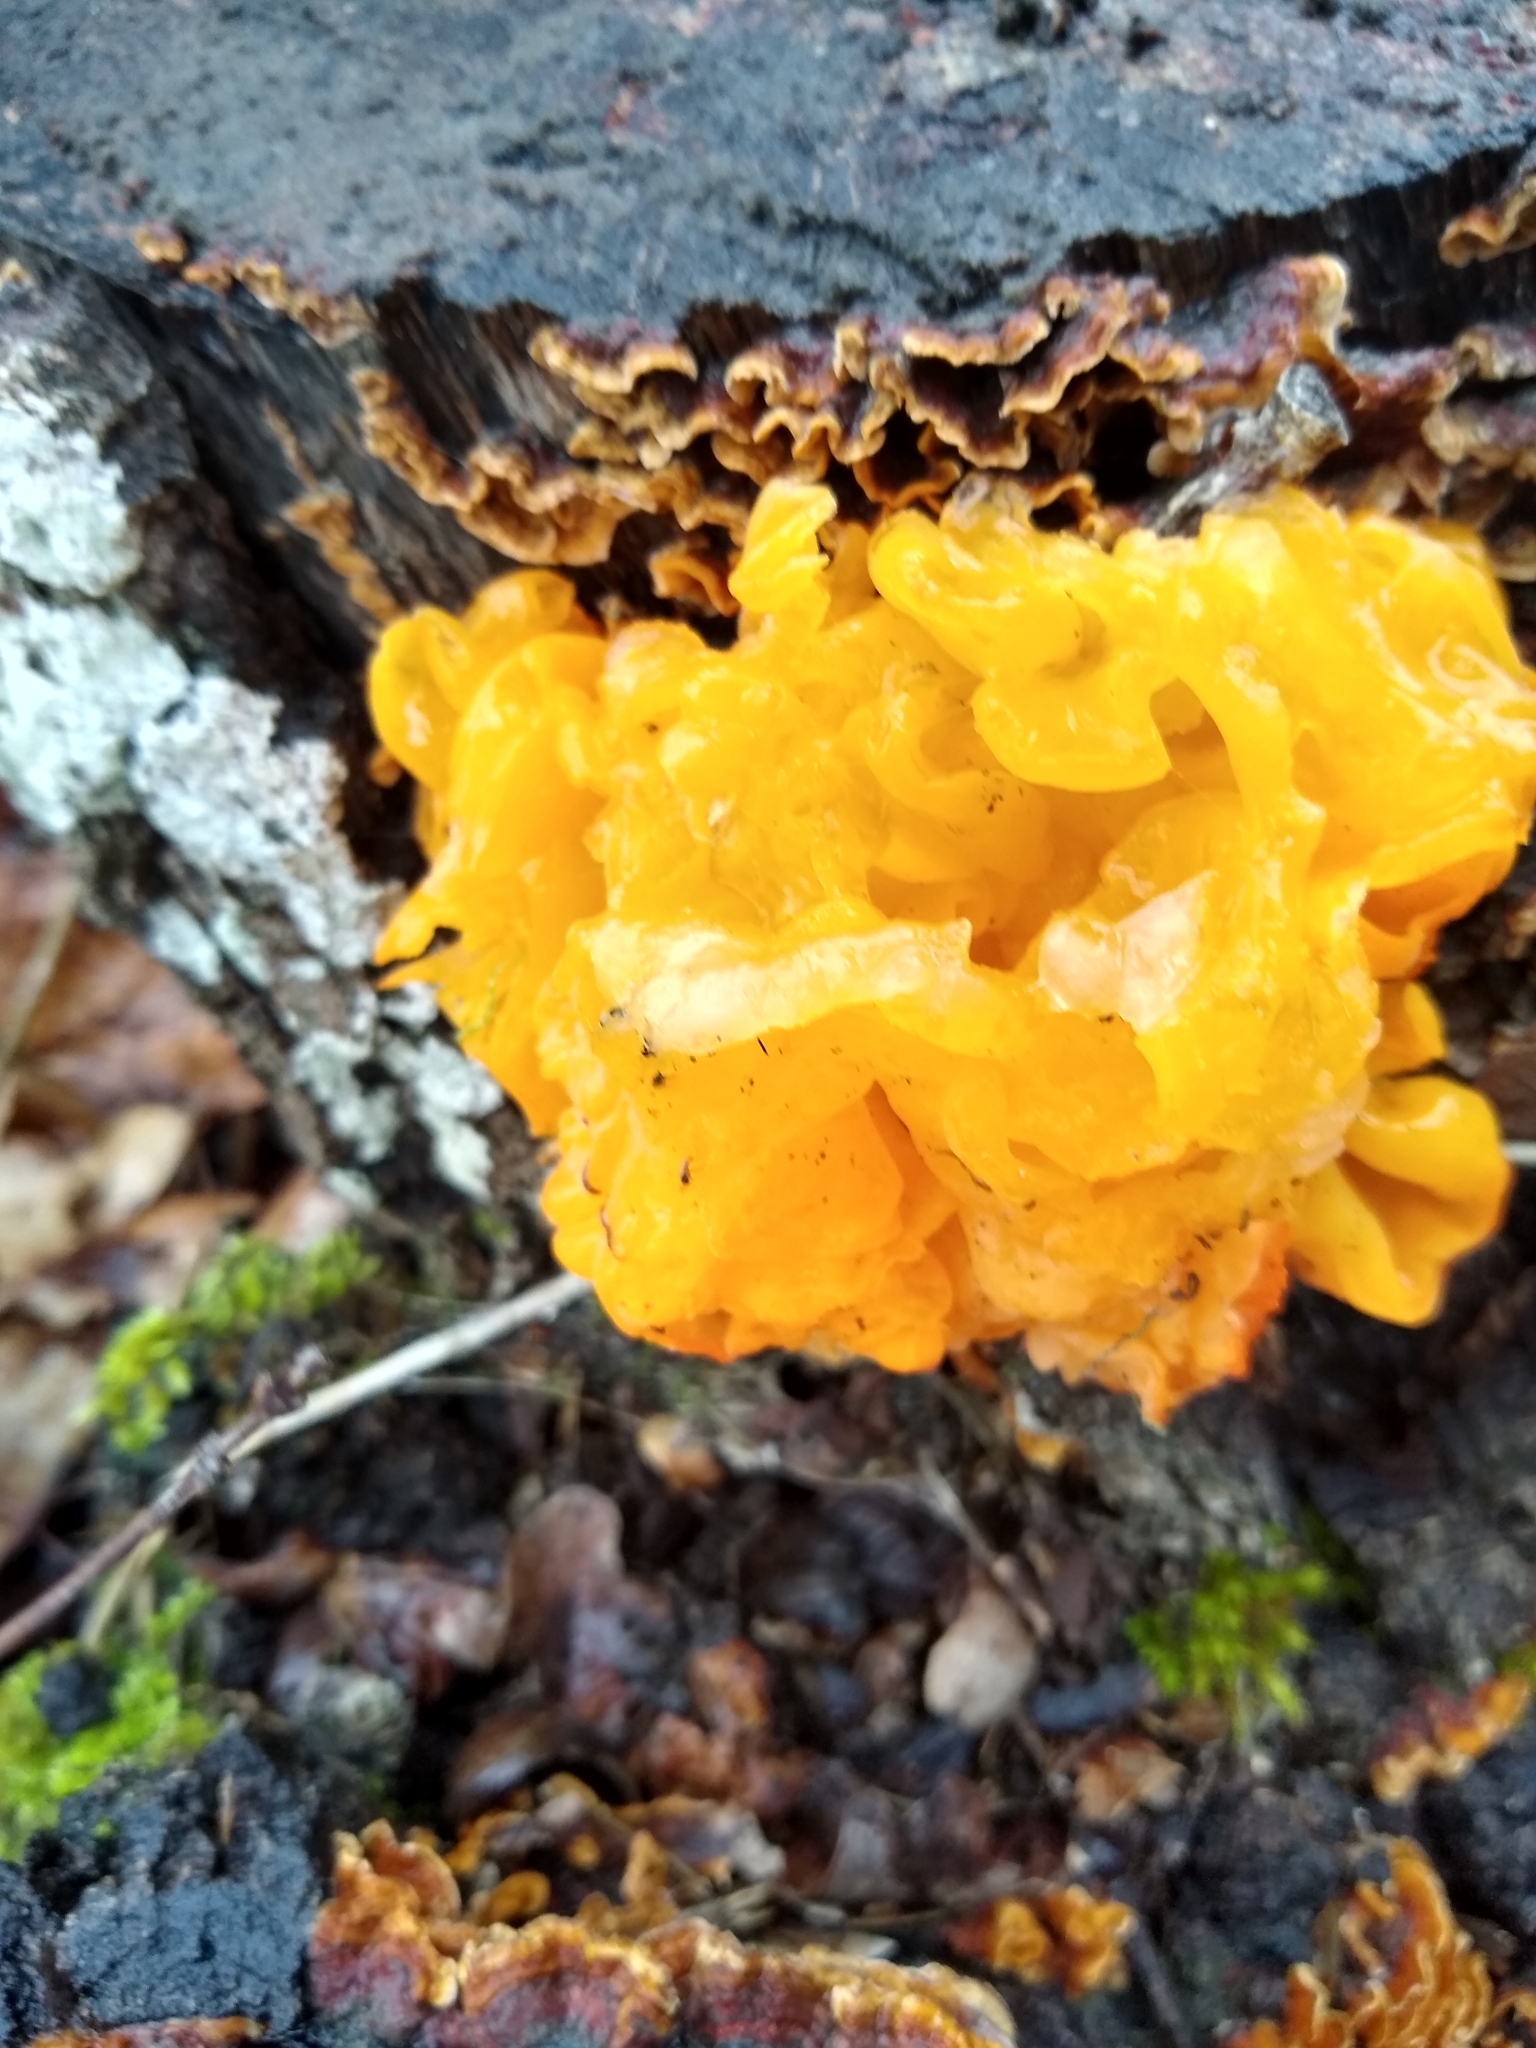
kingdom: Fungi
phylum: Basidiomycota
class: Tremellomycetes
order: Tremellales
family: Naemateliaceae
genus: Naematelia
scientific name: Naematelia aurantia
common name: Golden ear
